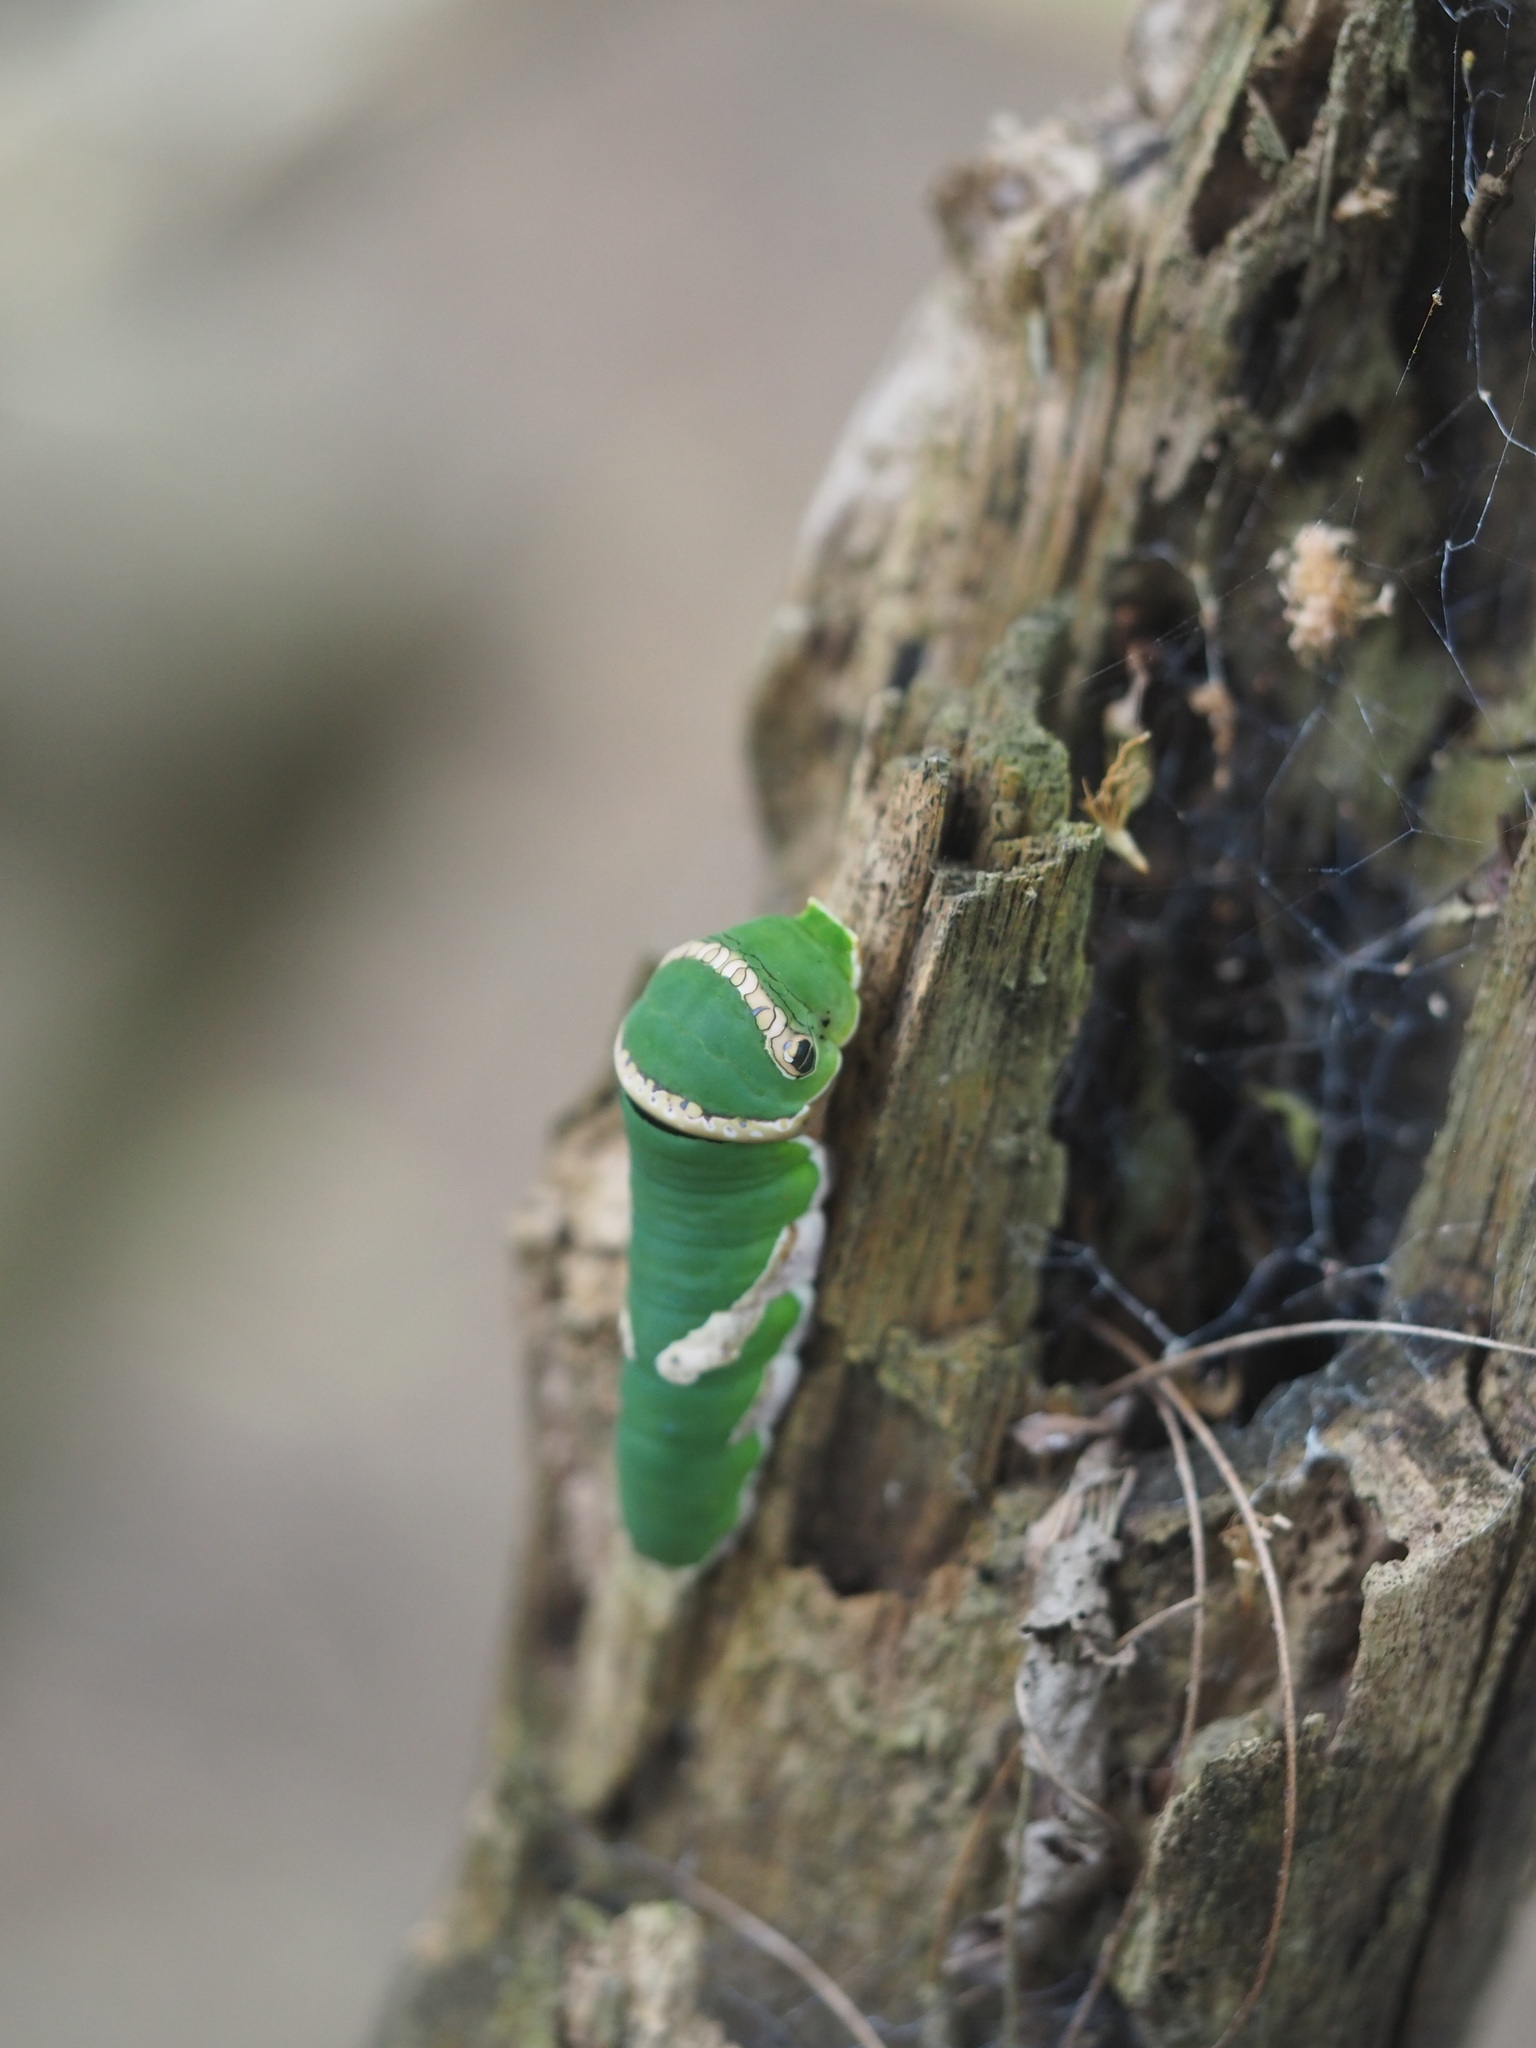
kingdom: Animalia
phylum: Arthropoda
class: Insecta
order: Lepidoptera
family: Papilionidae
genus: Papilio
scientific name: Papilio polytes
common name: Common mormon
